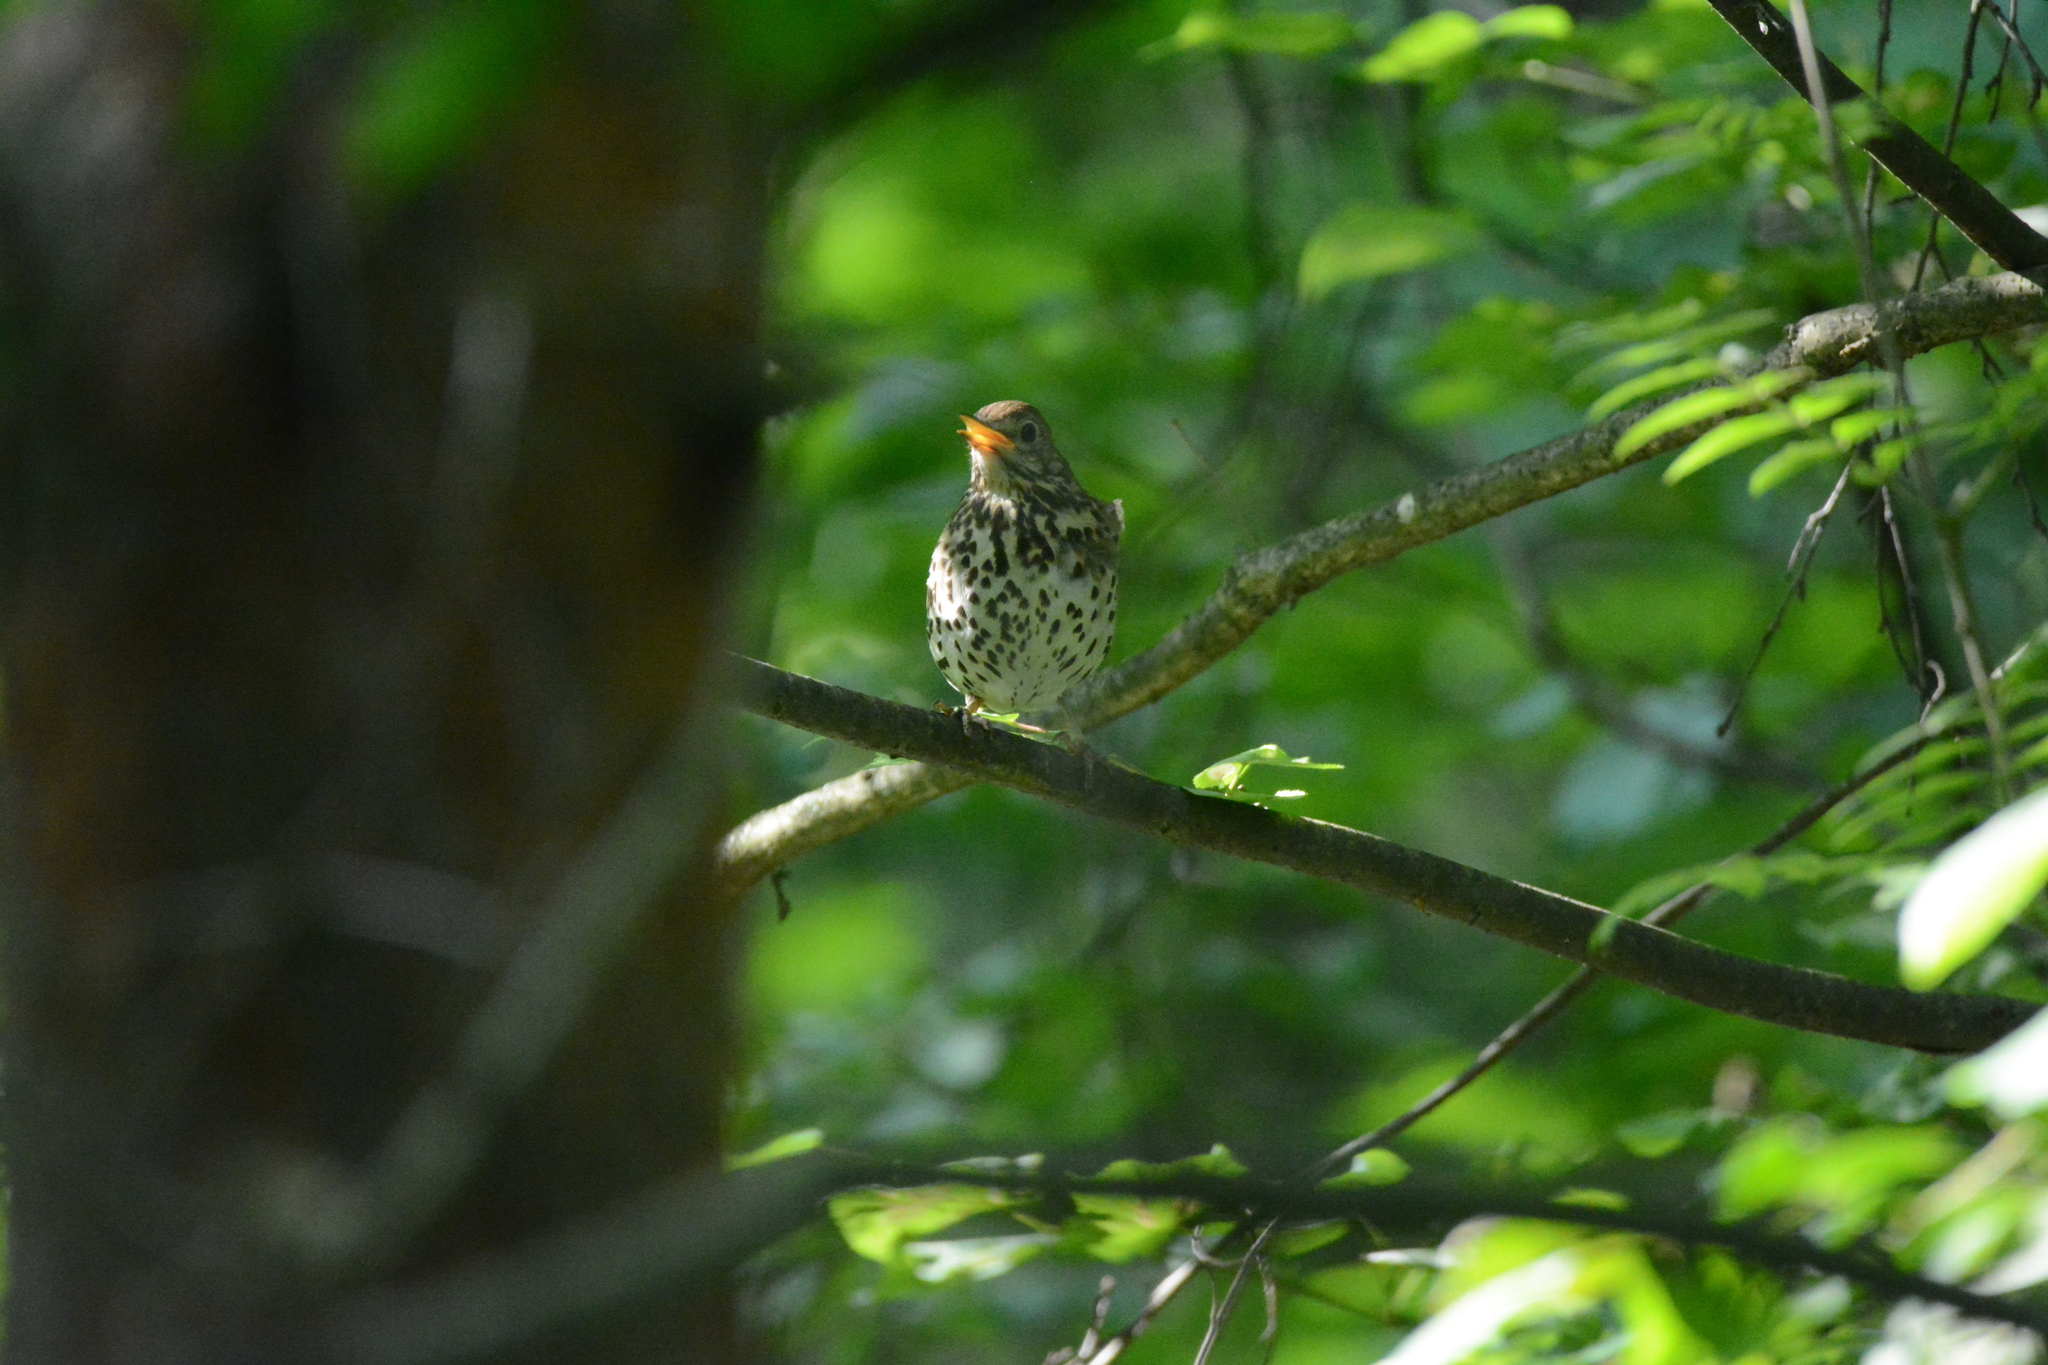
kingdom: Animalia
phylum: Chordata
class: Aves
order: Passeriformes
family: Turdidae
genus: Turdus
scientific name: Turdus philomelos
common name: Song thrush
